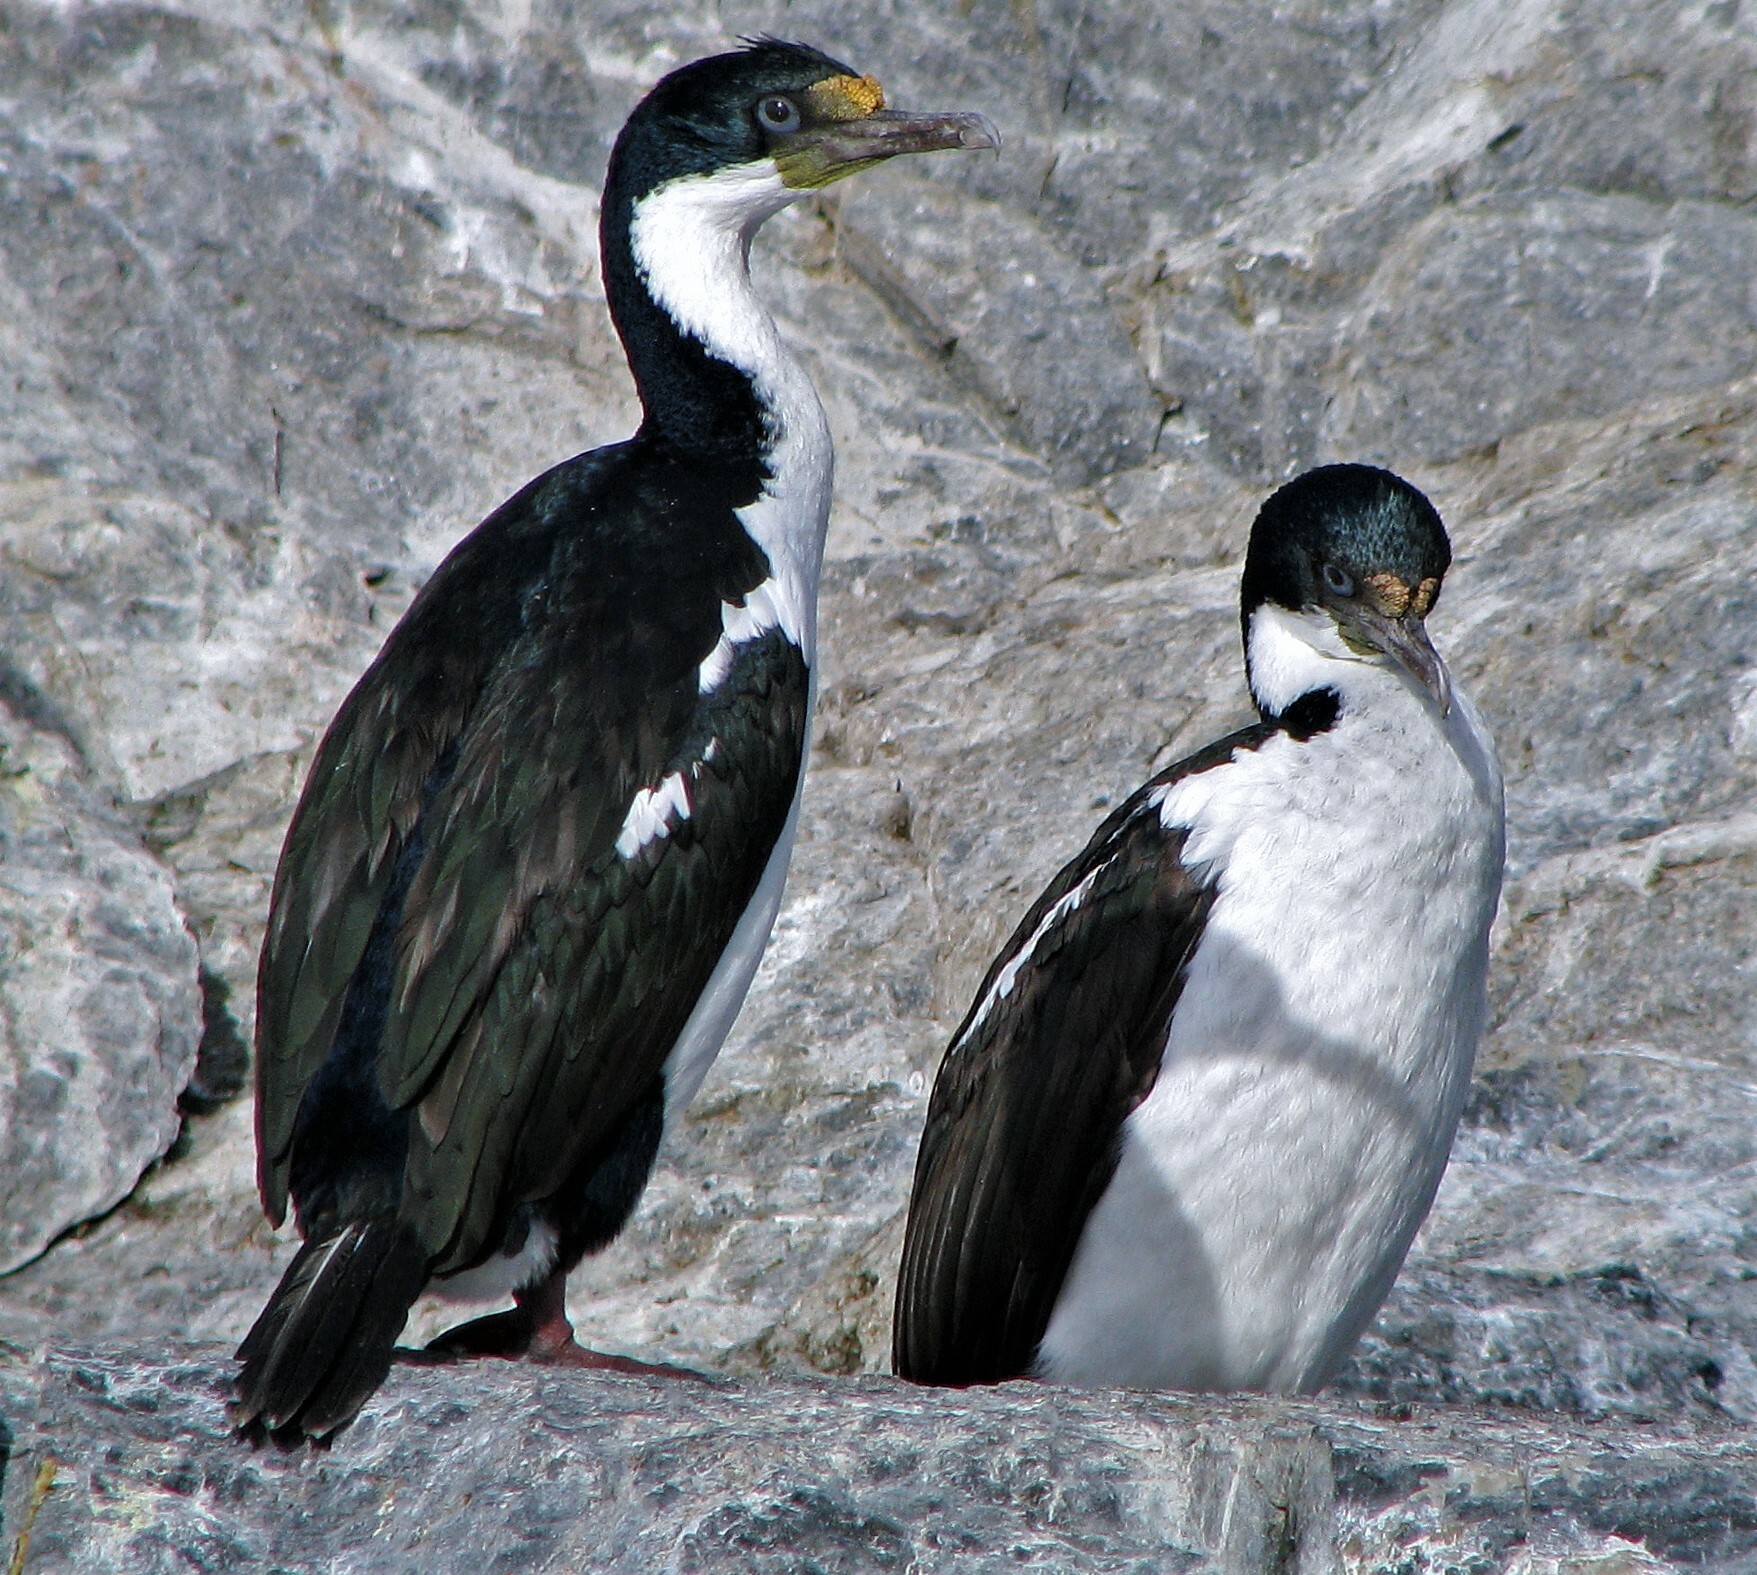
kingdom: Animalia
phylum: Chordata
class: Aves
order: Suliformes
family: Phalacrocoracidae
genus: Leucocarbo
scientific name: Leucocarbo atriceps
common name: Imperial shag
